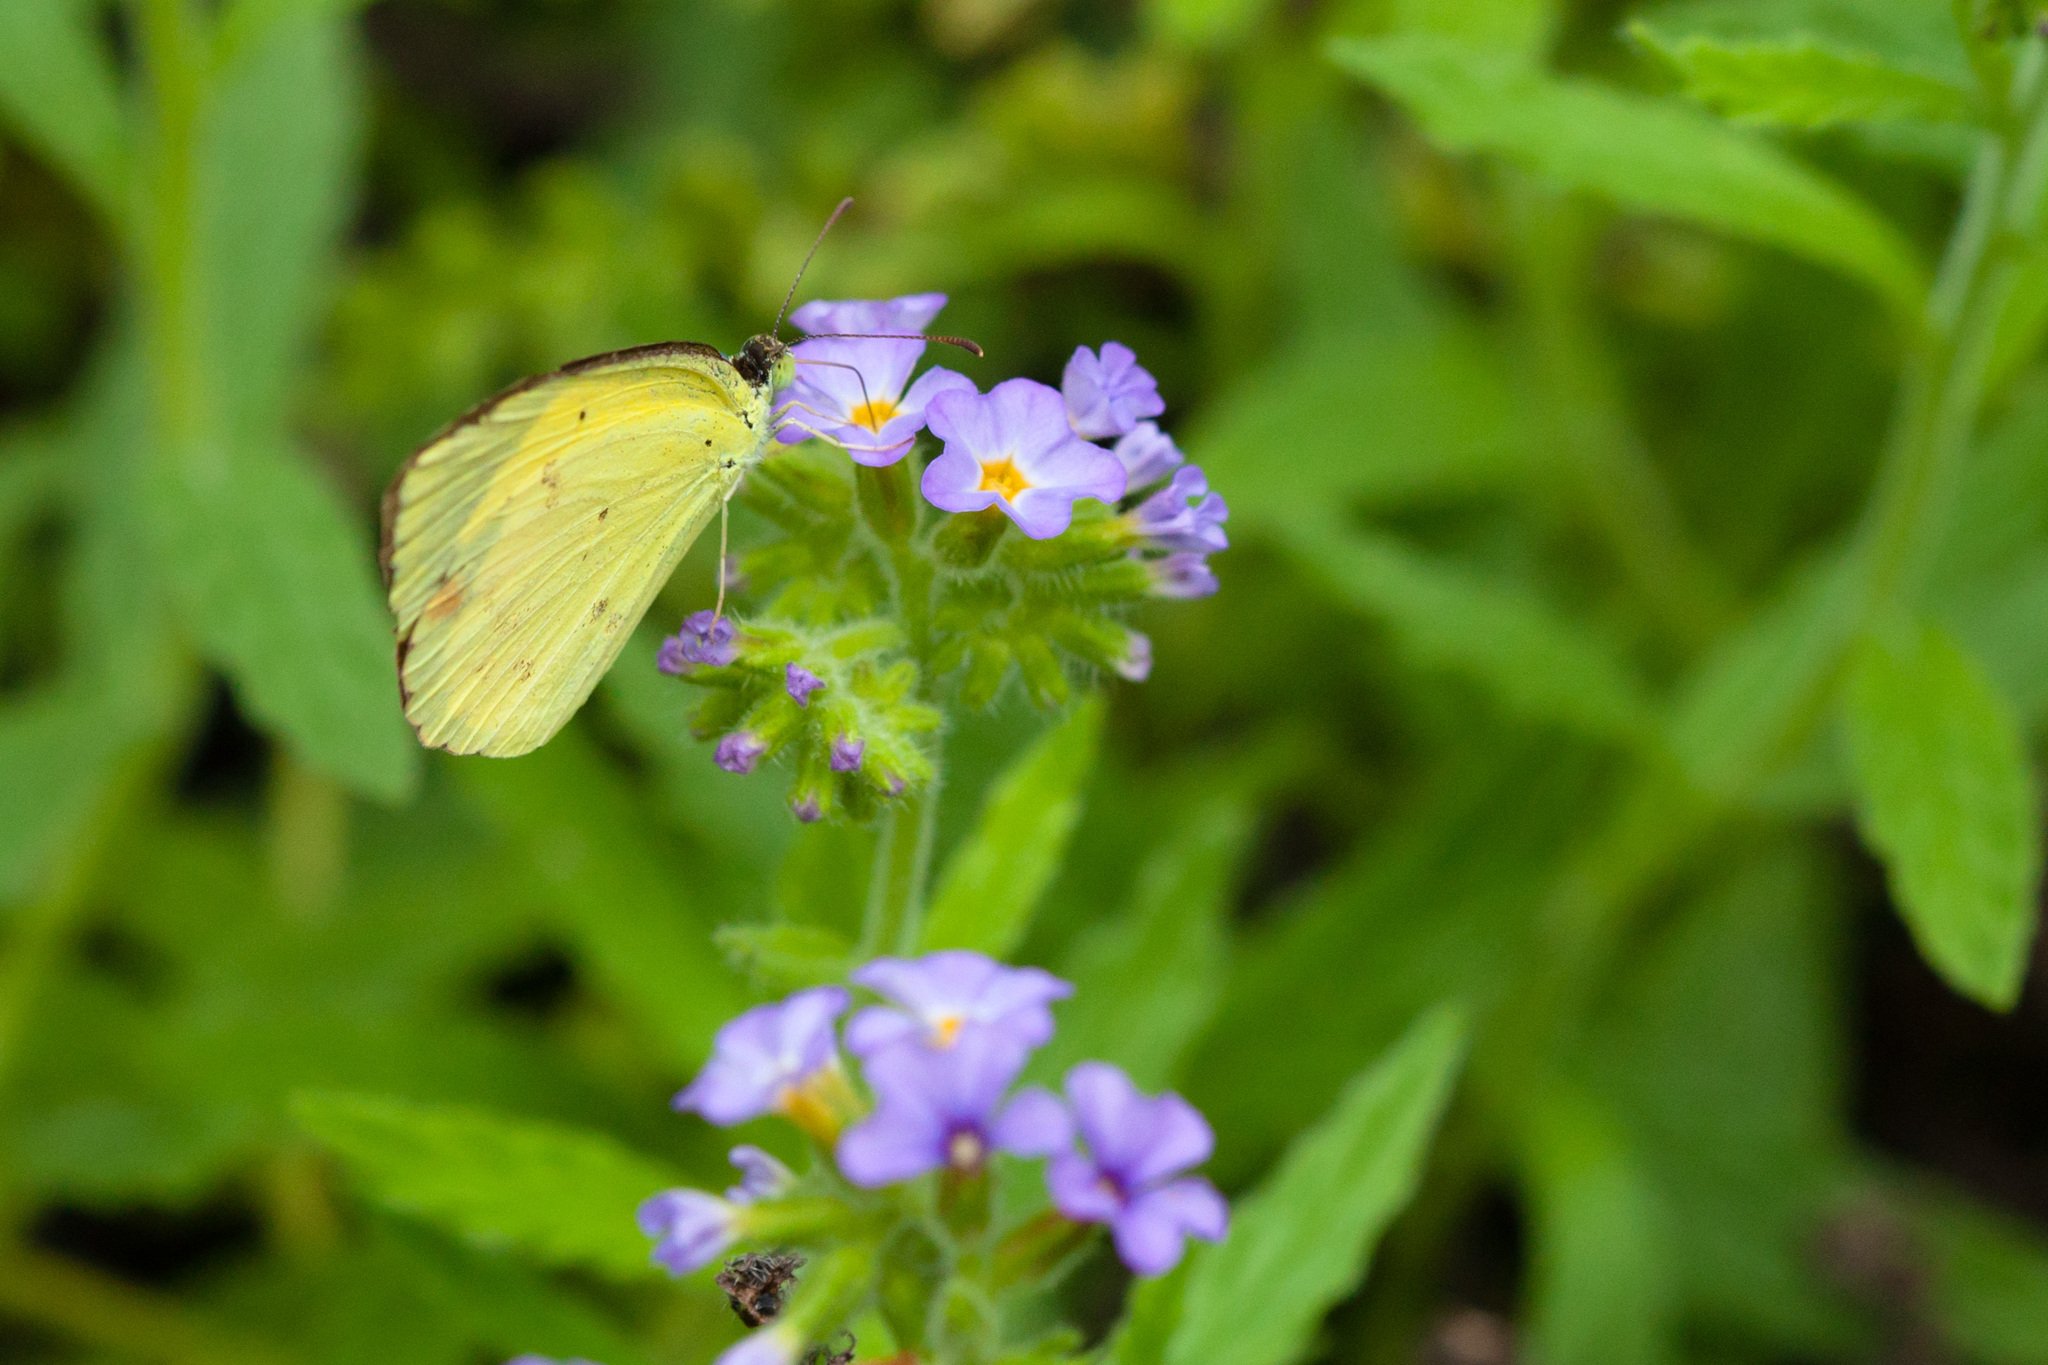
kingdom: Animalia
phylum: Arthropoda
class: Insecta
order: Lepidoptera
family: Pieridae
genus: Pyrisitia
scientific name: Pyrisitia lisa
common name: Little yellow
